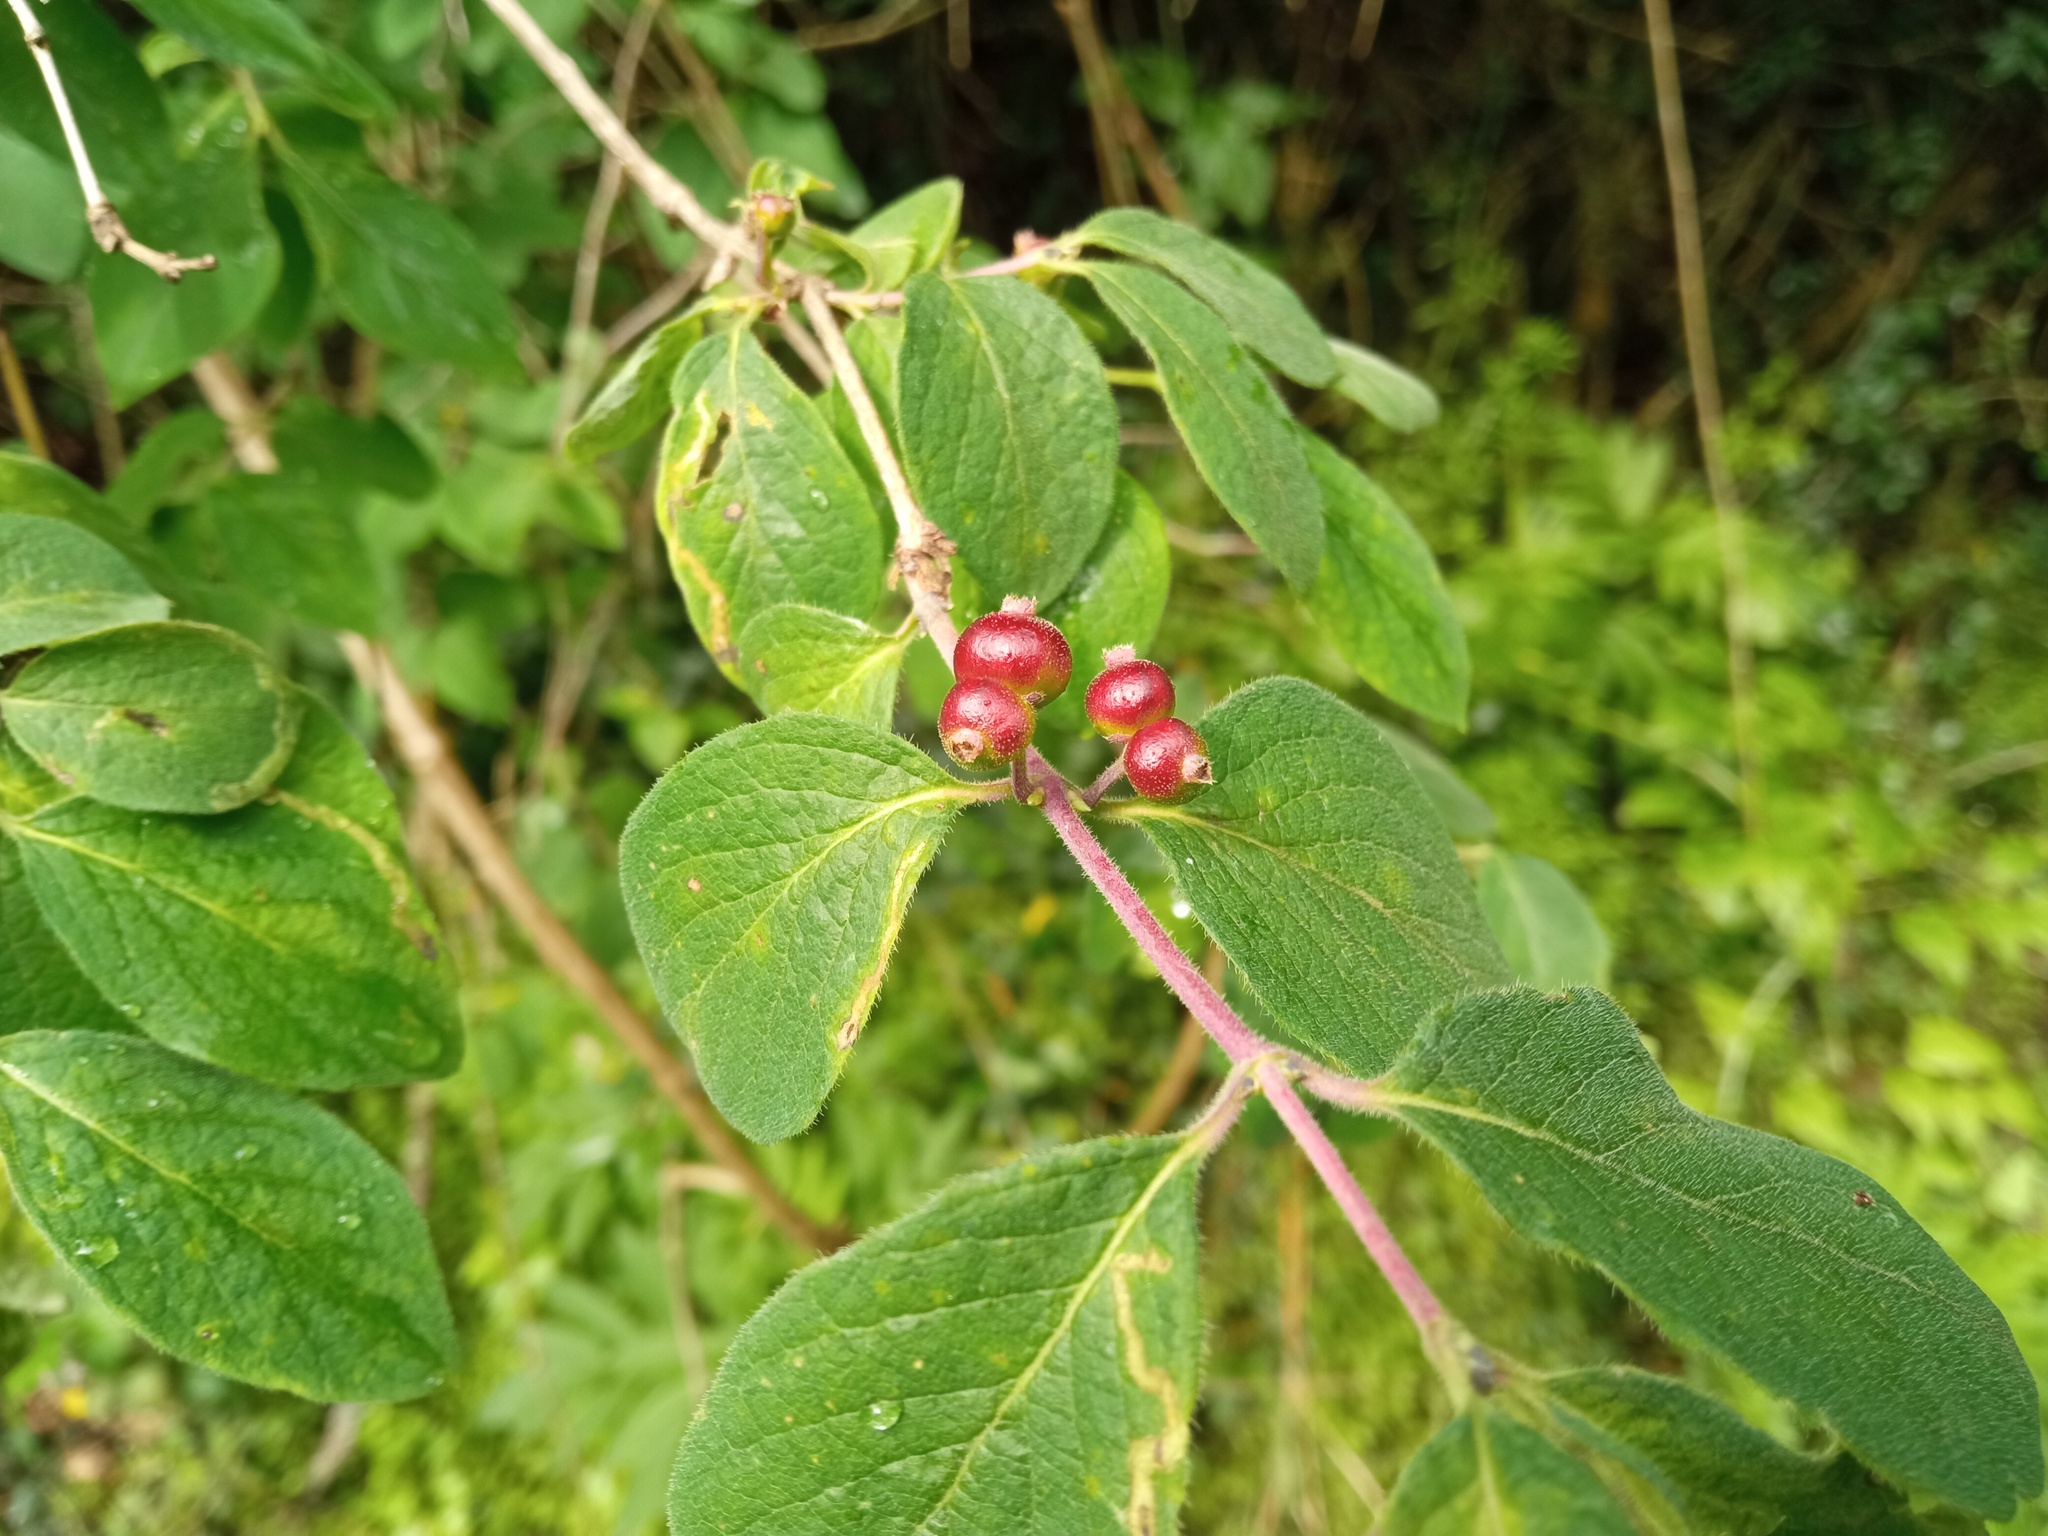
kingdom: Plantae
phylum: Tracheophyta
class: Magnoliopsida
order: Dipsacales
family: Caprifoliaceae
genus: Lonicera
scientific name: Lonicera xylosteum
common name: Fly honeysuckle
